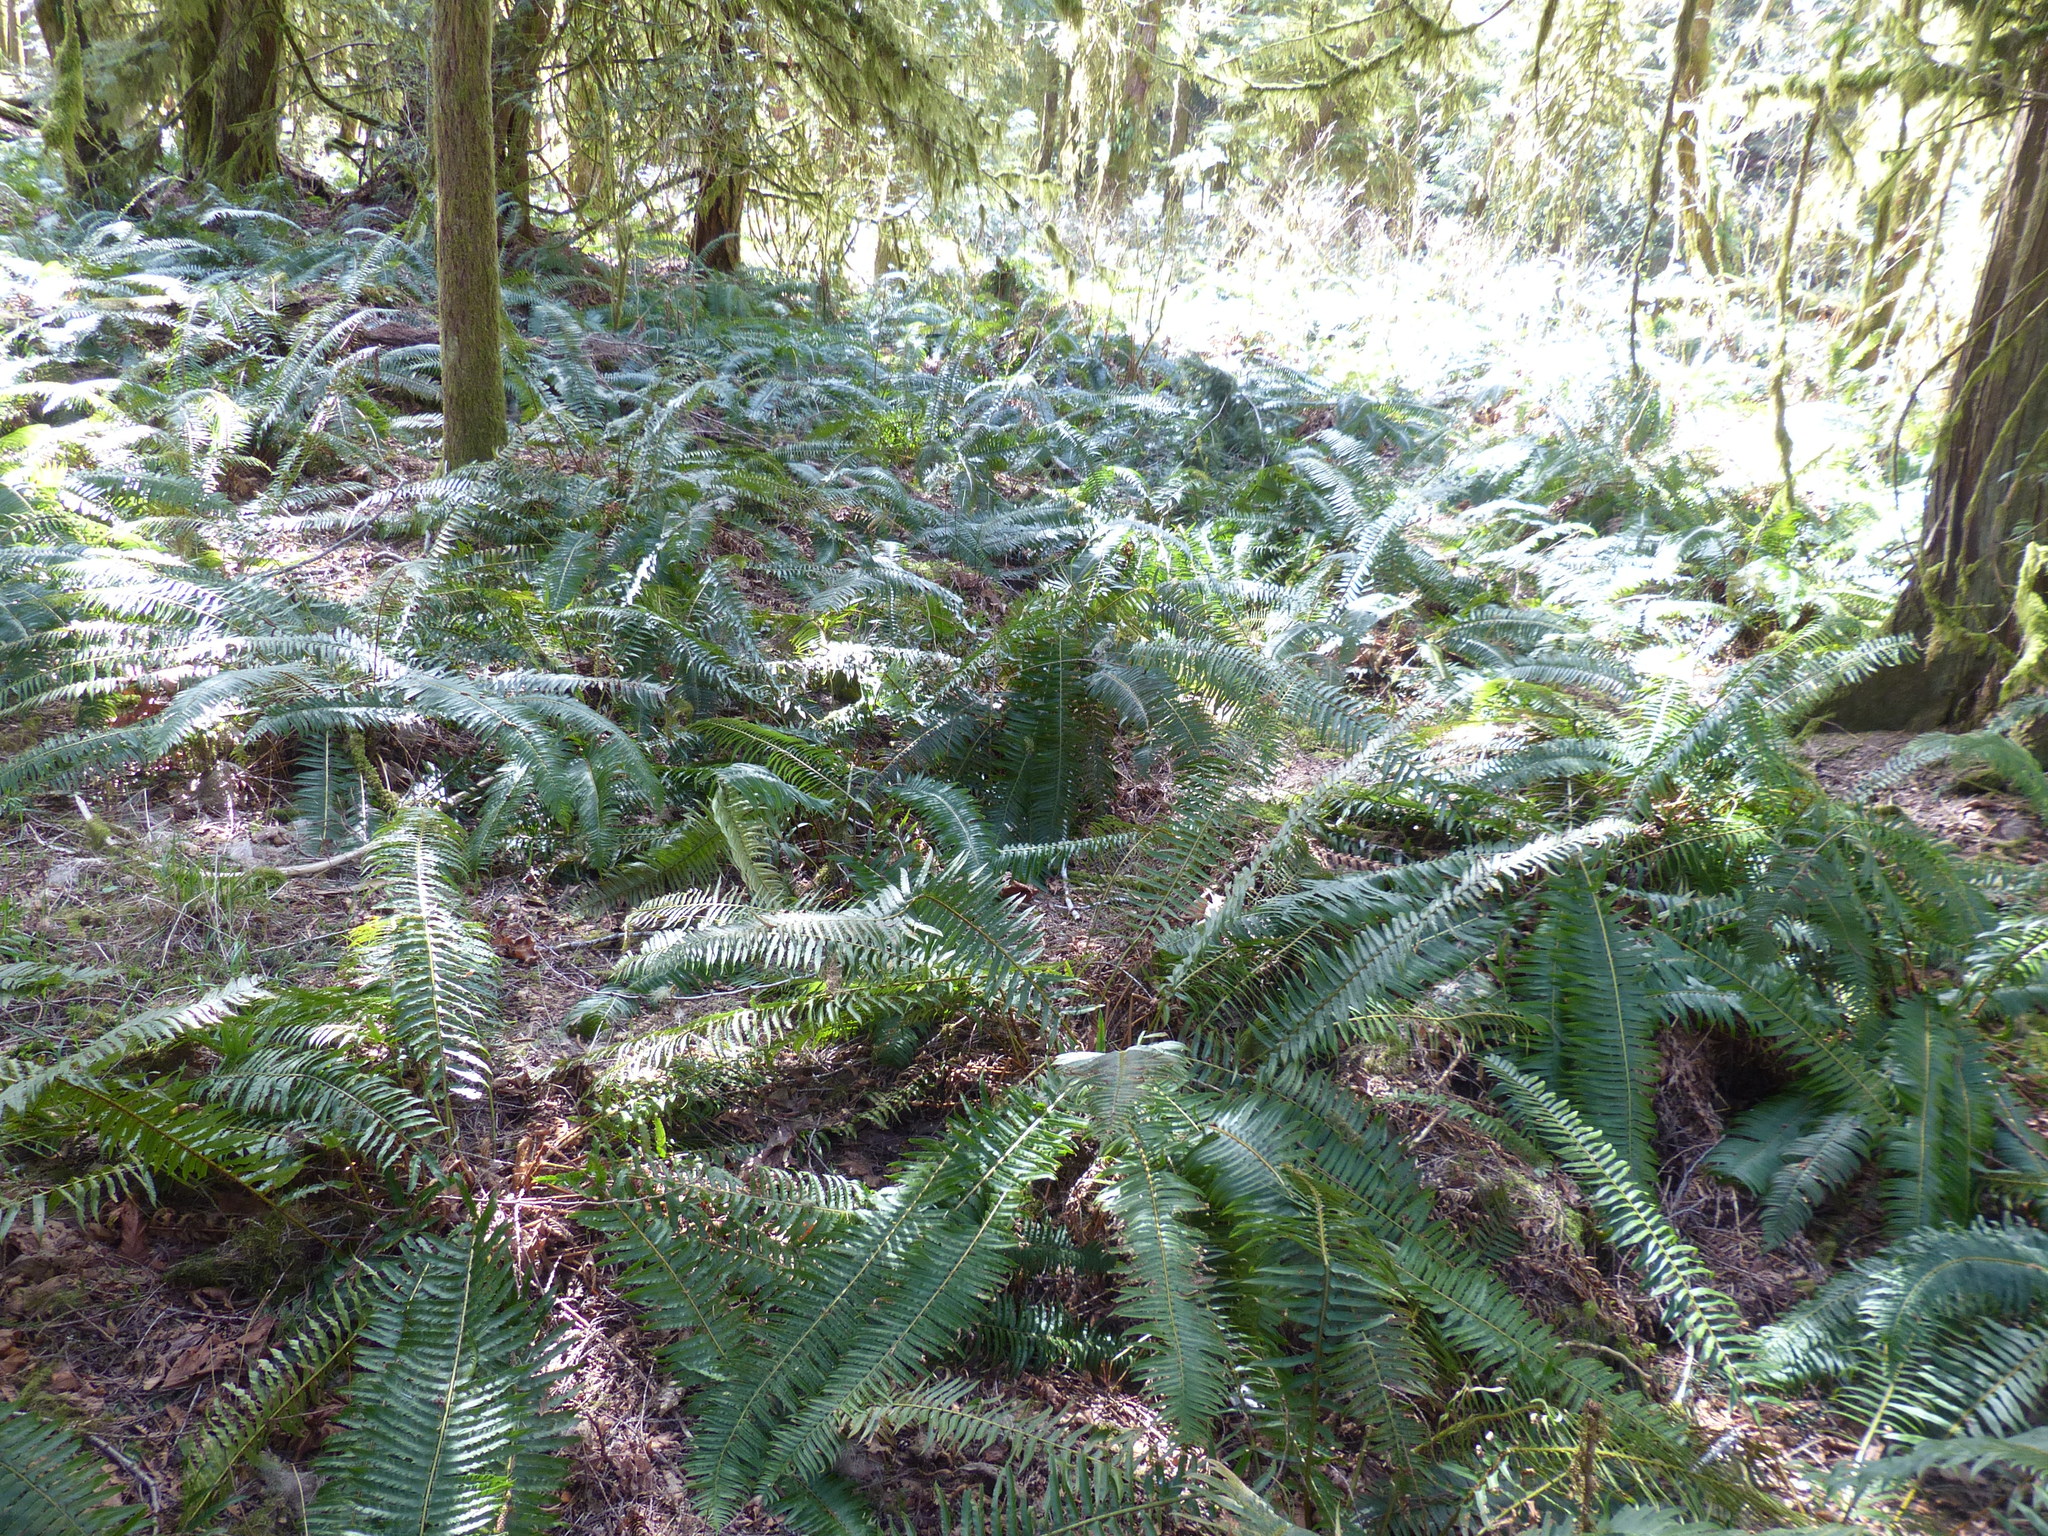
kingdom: Plantae
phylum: Tracheophyta
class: Polypodiopsida
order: Polypodiales
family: Dryopteridaceae
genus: Polystichum
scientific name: Polystichum munitum
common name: Western sword-fern
